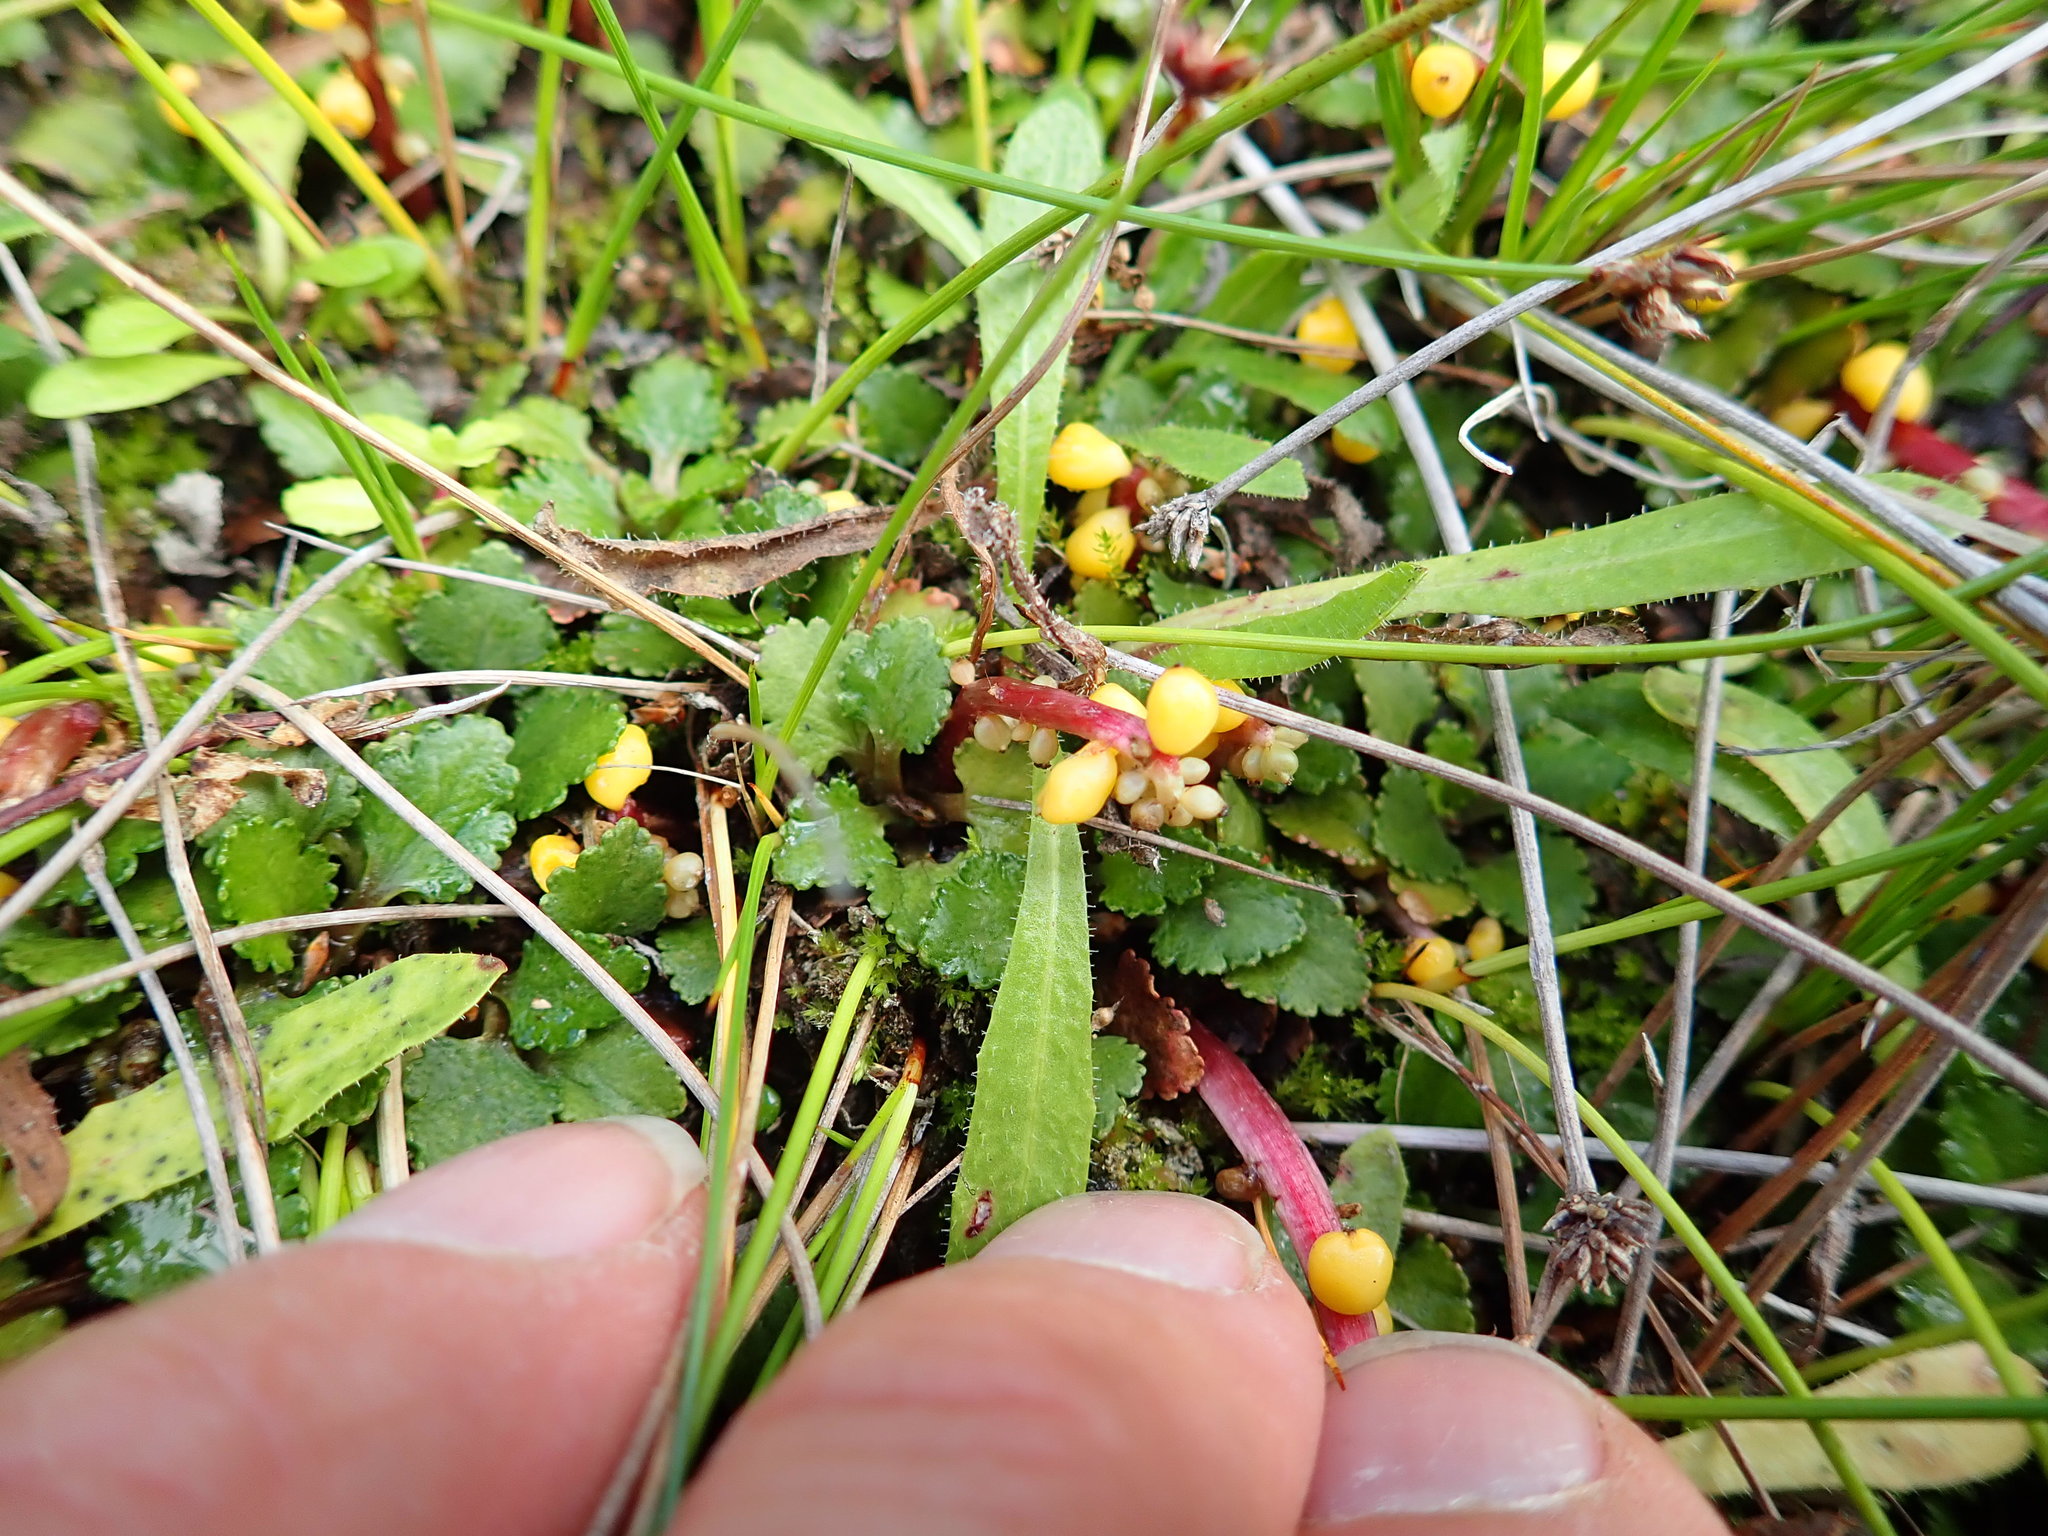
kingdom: Plantae
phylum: Tracheophyta
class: Magnoliopsida
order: Gunnerales
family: Gunneraceae
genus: Gunnera
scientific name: Gunnera dentata
